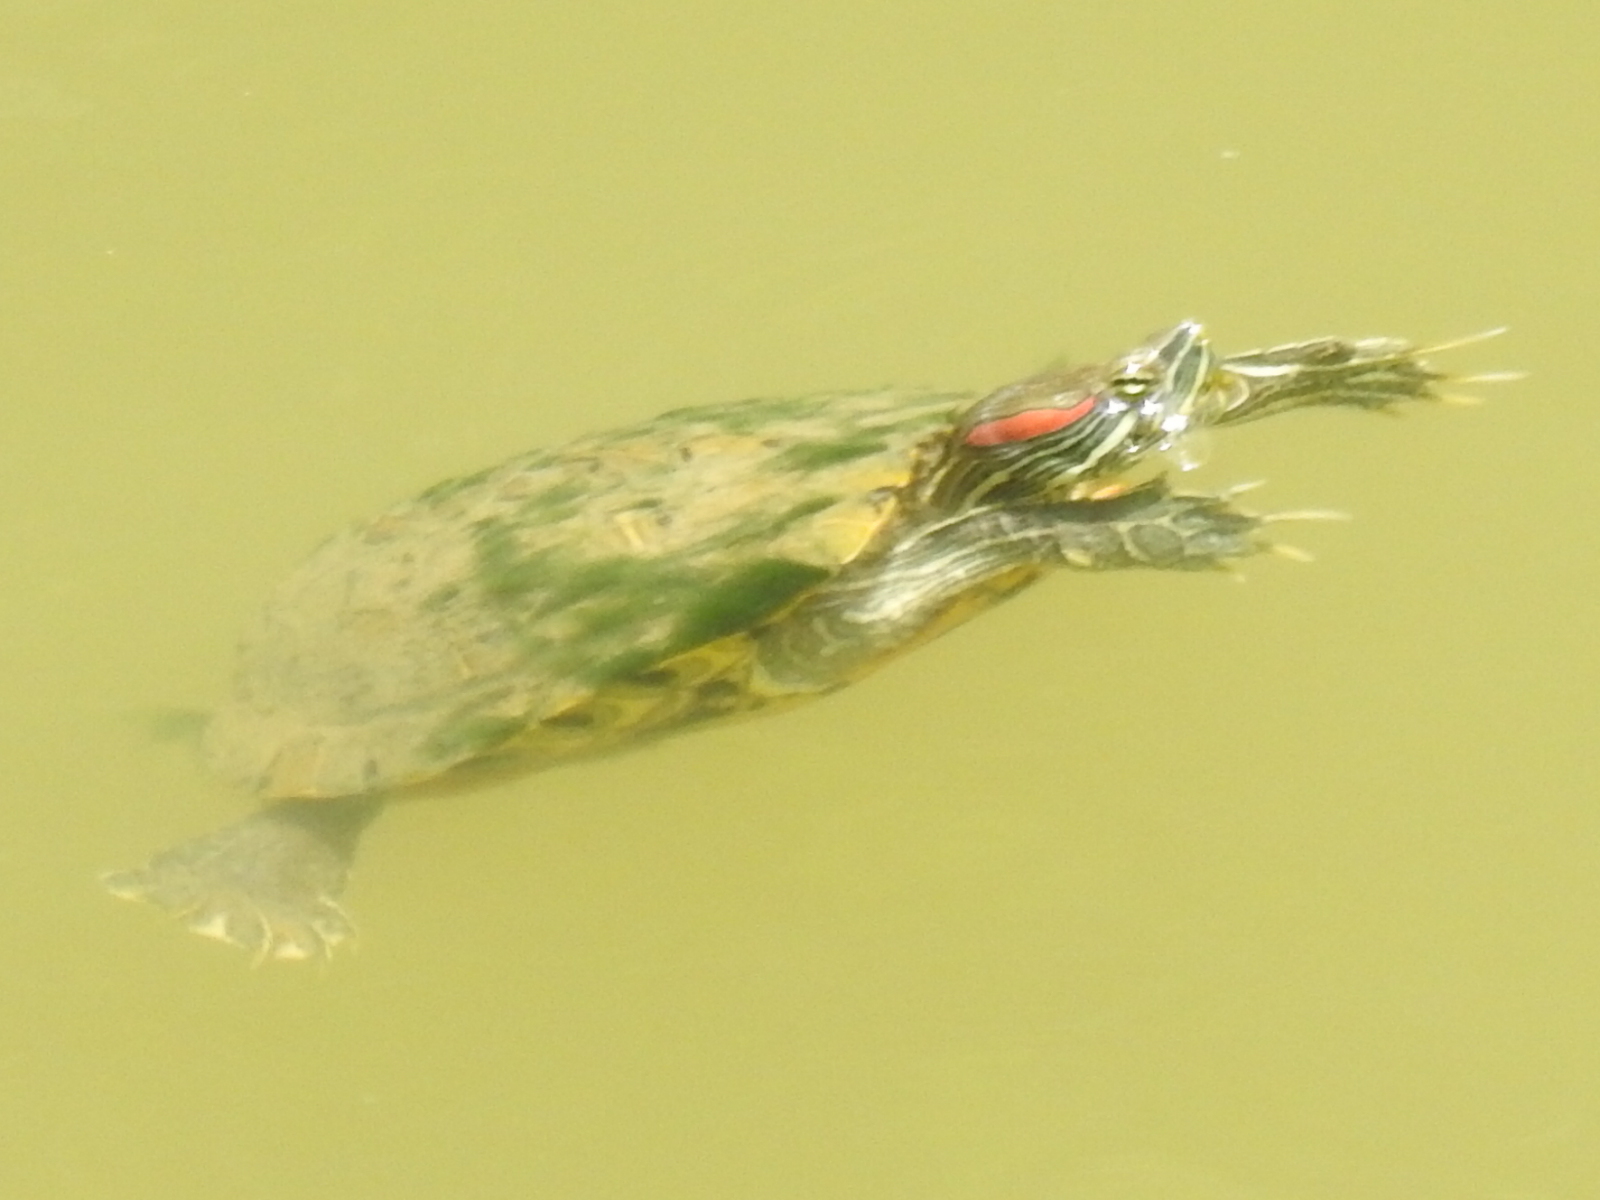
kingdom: Animalia
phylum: Chordata
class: Testudines
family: Emydidae
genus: Trachemys
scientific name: Trachemys scripta
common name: Slider
